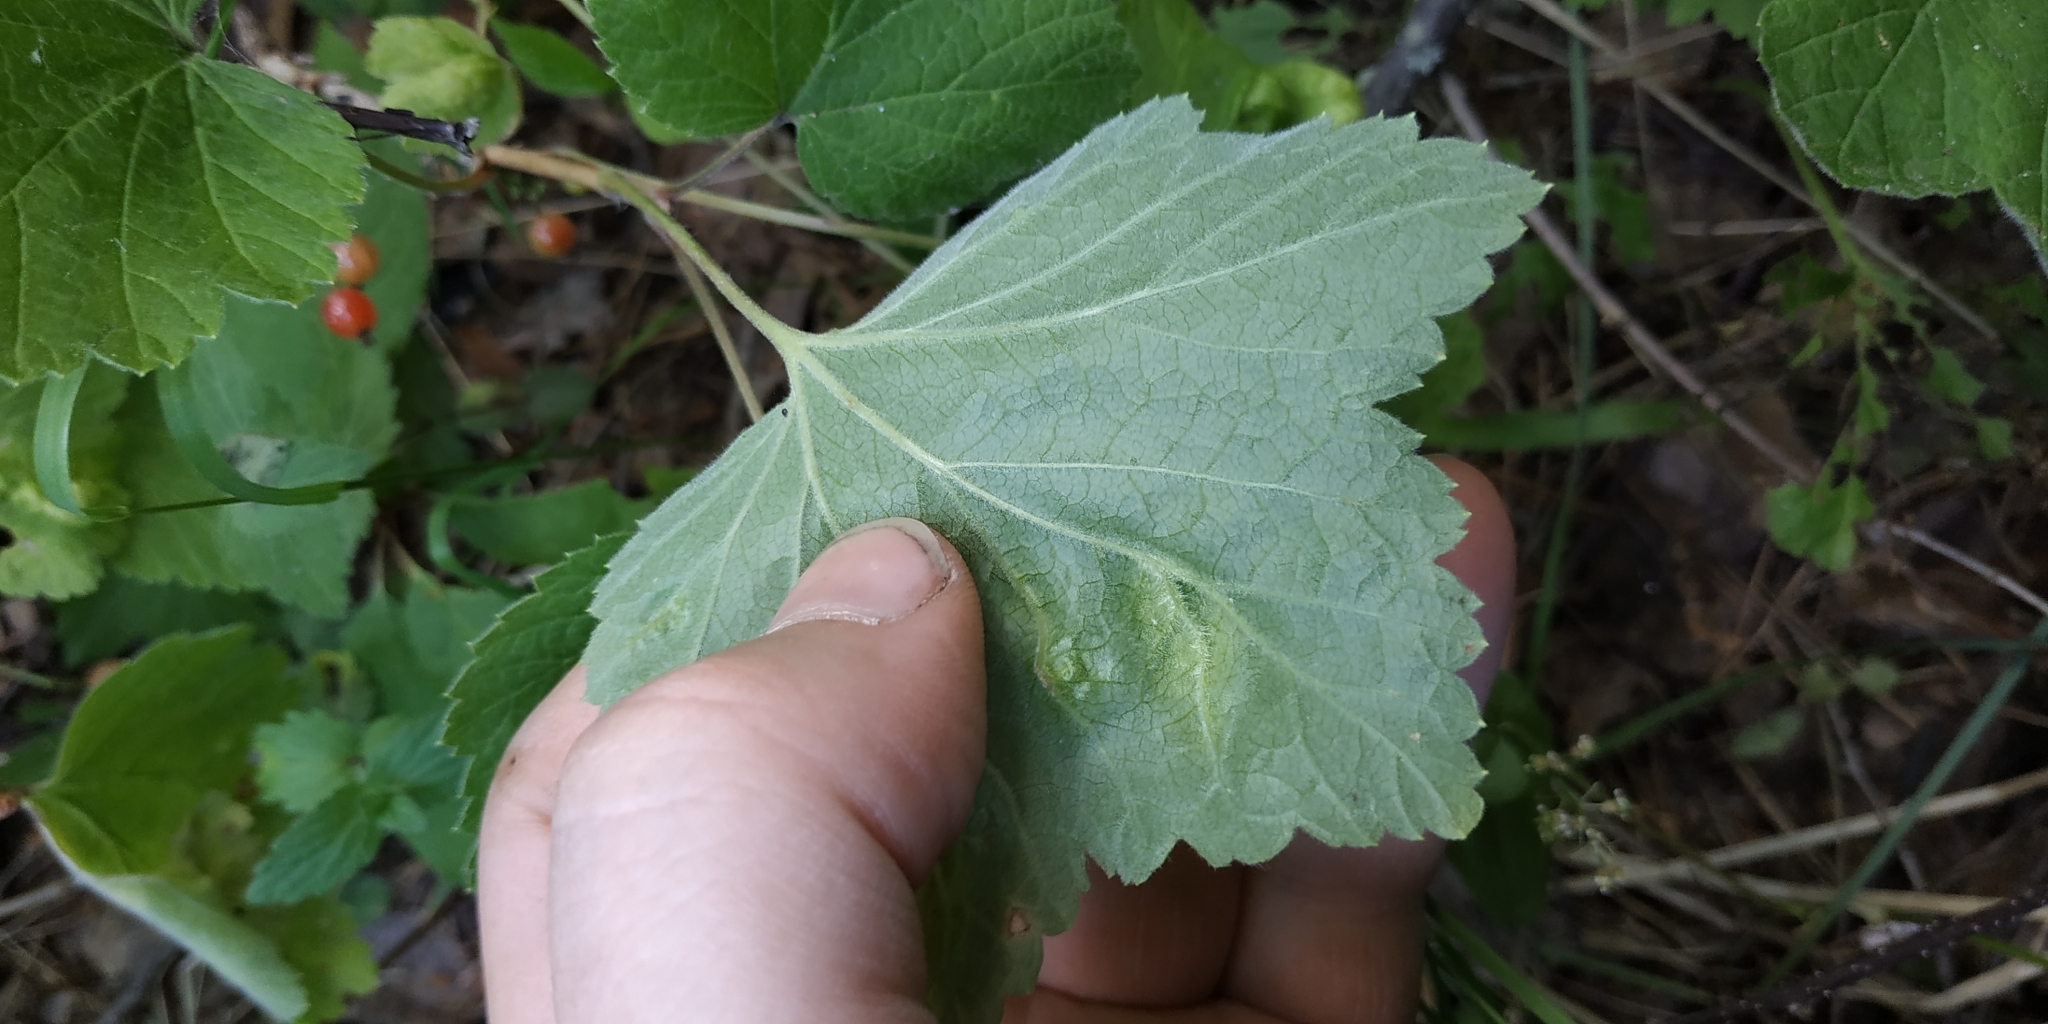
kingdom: Plantae
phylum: Tracheophyta
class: Magnoliopsida
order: Saxifragales
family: Grossulariaceae
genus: Ribes
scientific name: Ribes spicatum
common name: Downy currant
